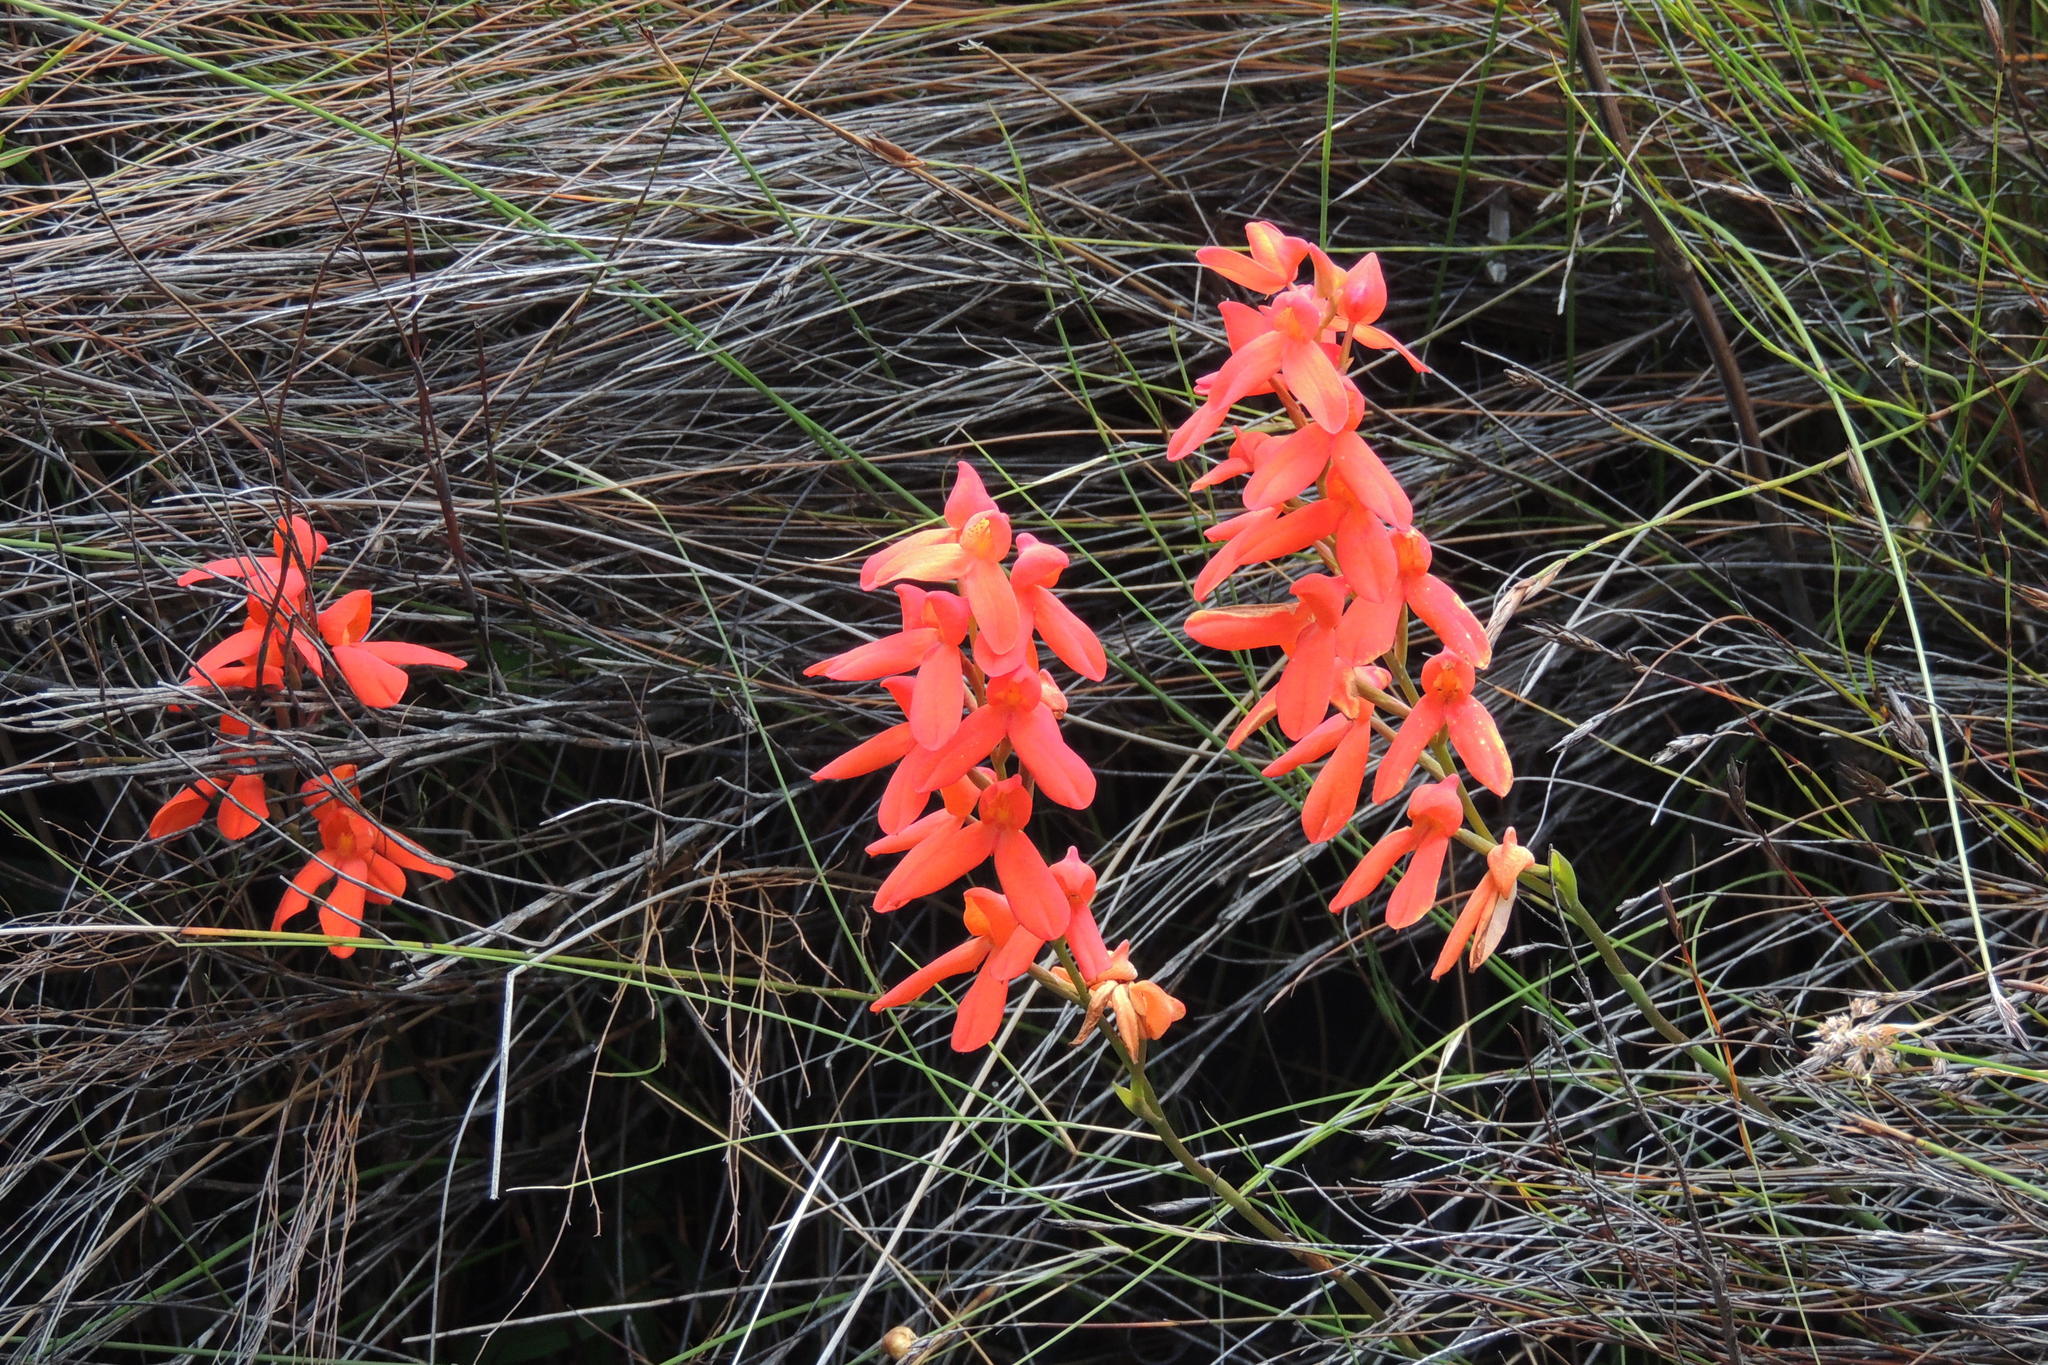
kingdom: Plantae
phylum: Tracheophyta
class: Liliopsida
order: Asparagales
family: Orchidaceae
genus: Disa
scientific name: Disa cardinalis
